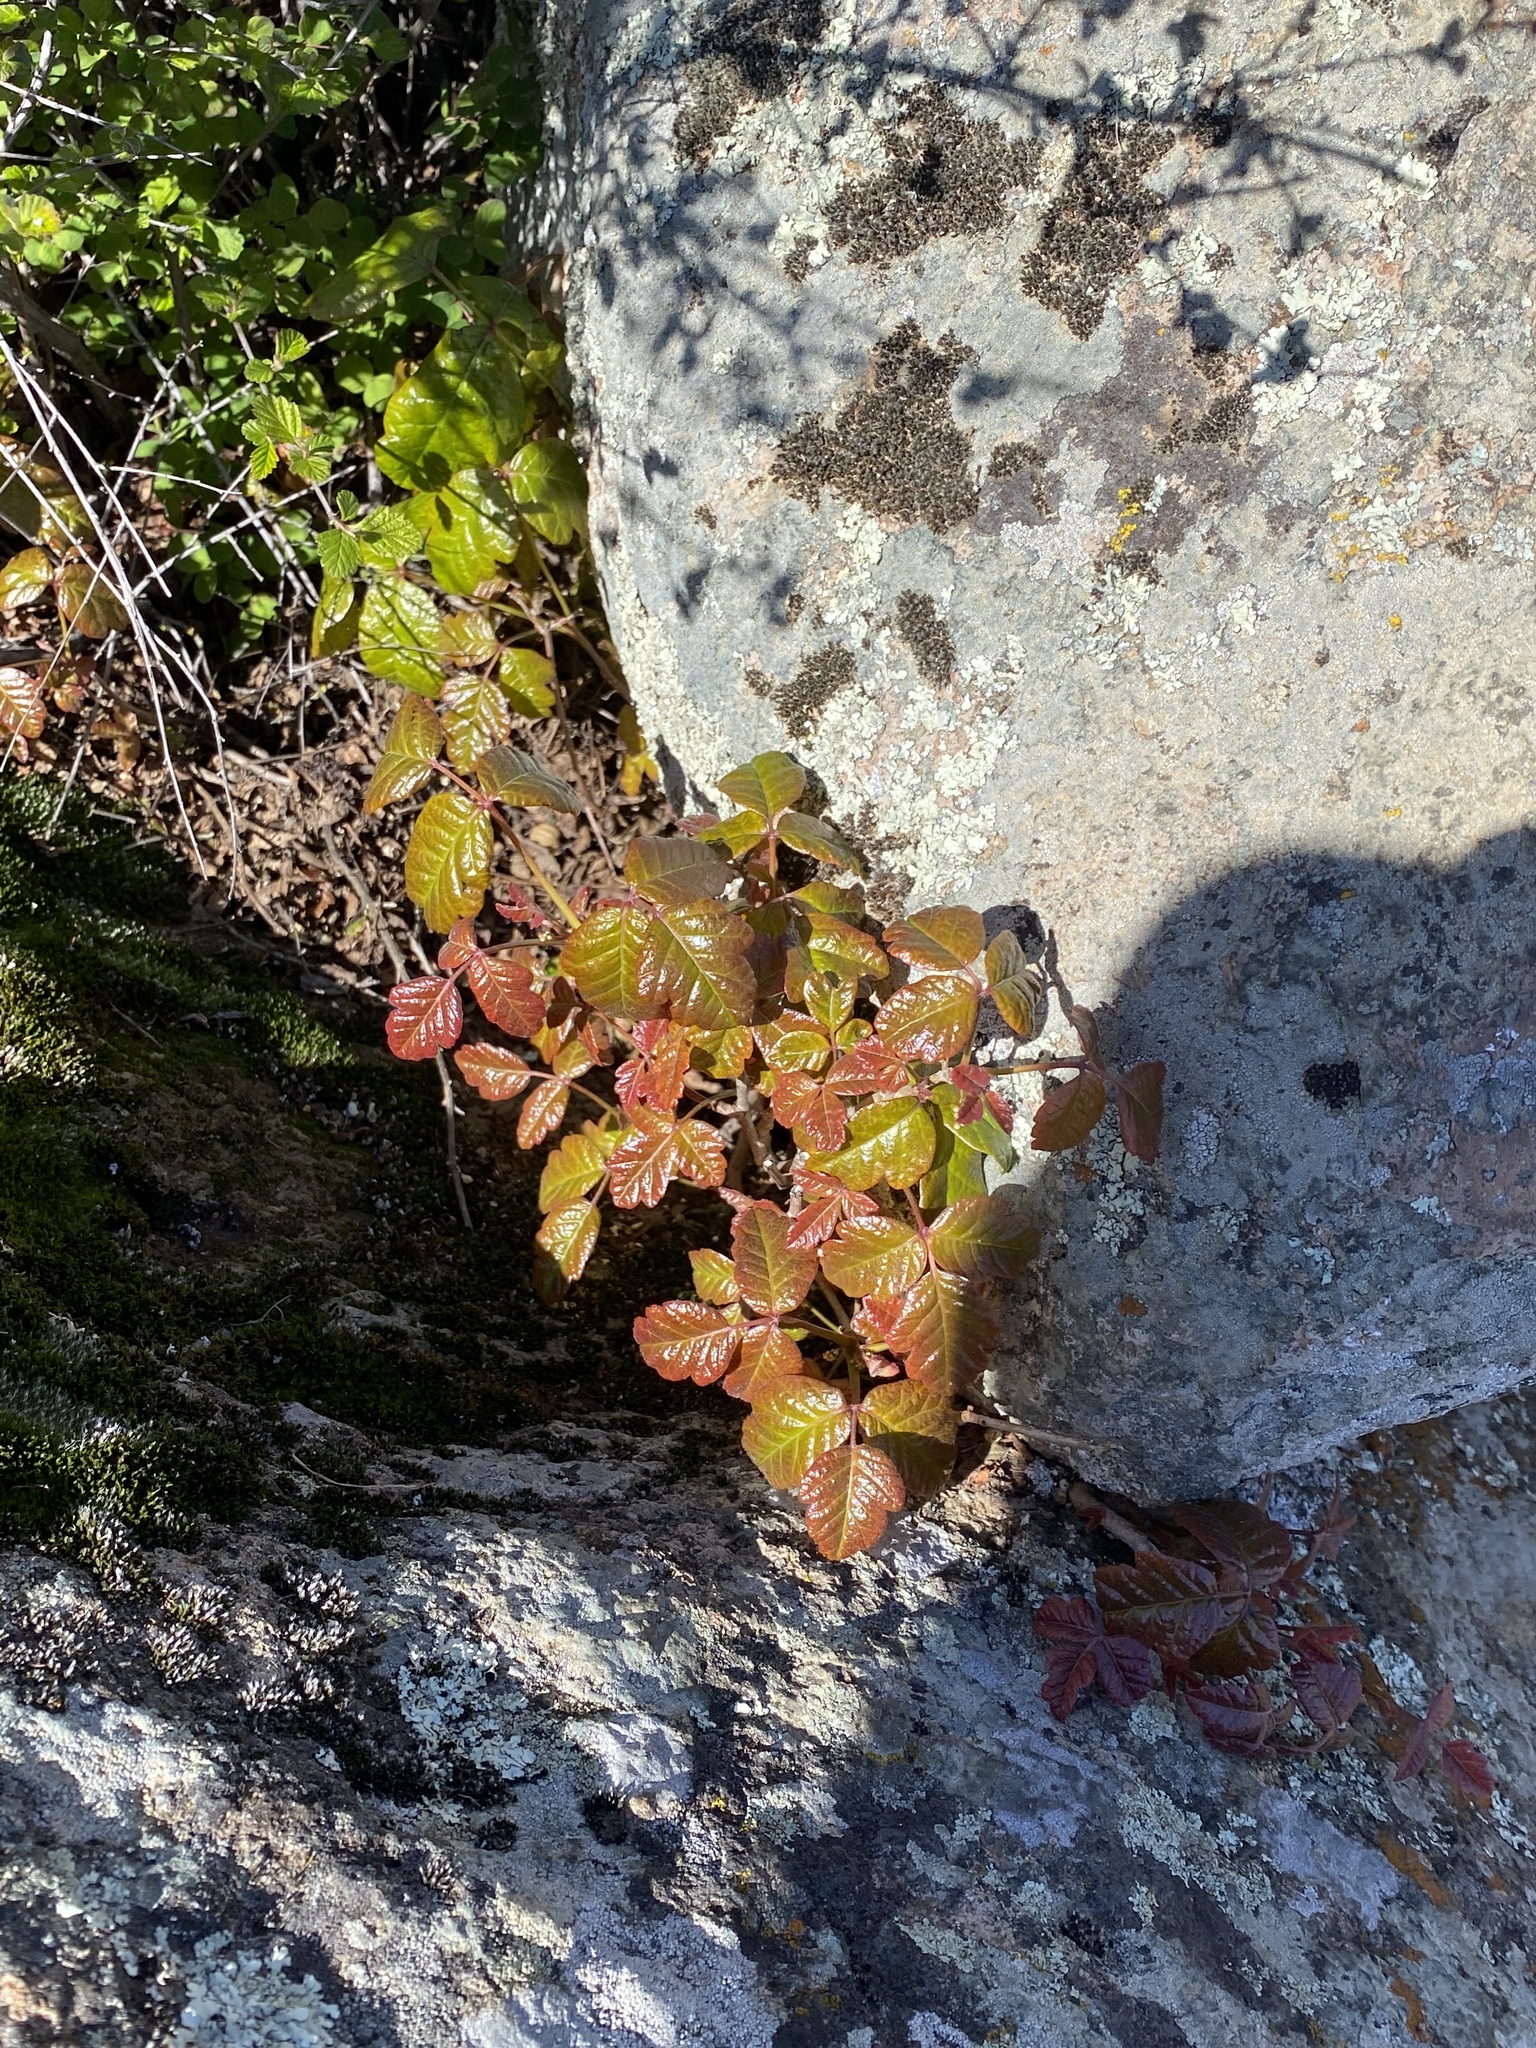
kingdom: Plantae
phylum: Tracheophyta
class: Magnoliopsida
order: Sapindales
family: Anacardiaceae
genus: Toxicodendron
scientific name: Toxicodendron diversilobum
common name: Pacific poison-oak
